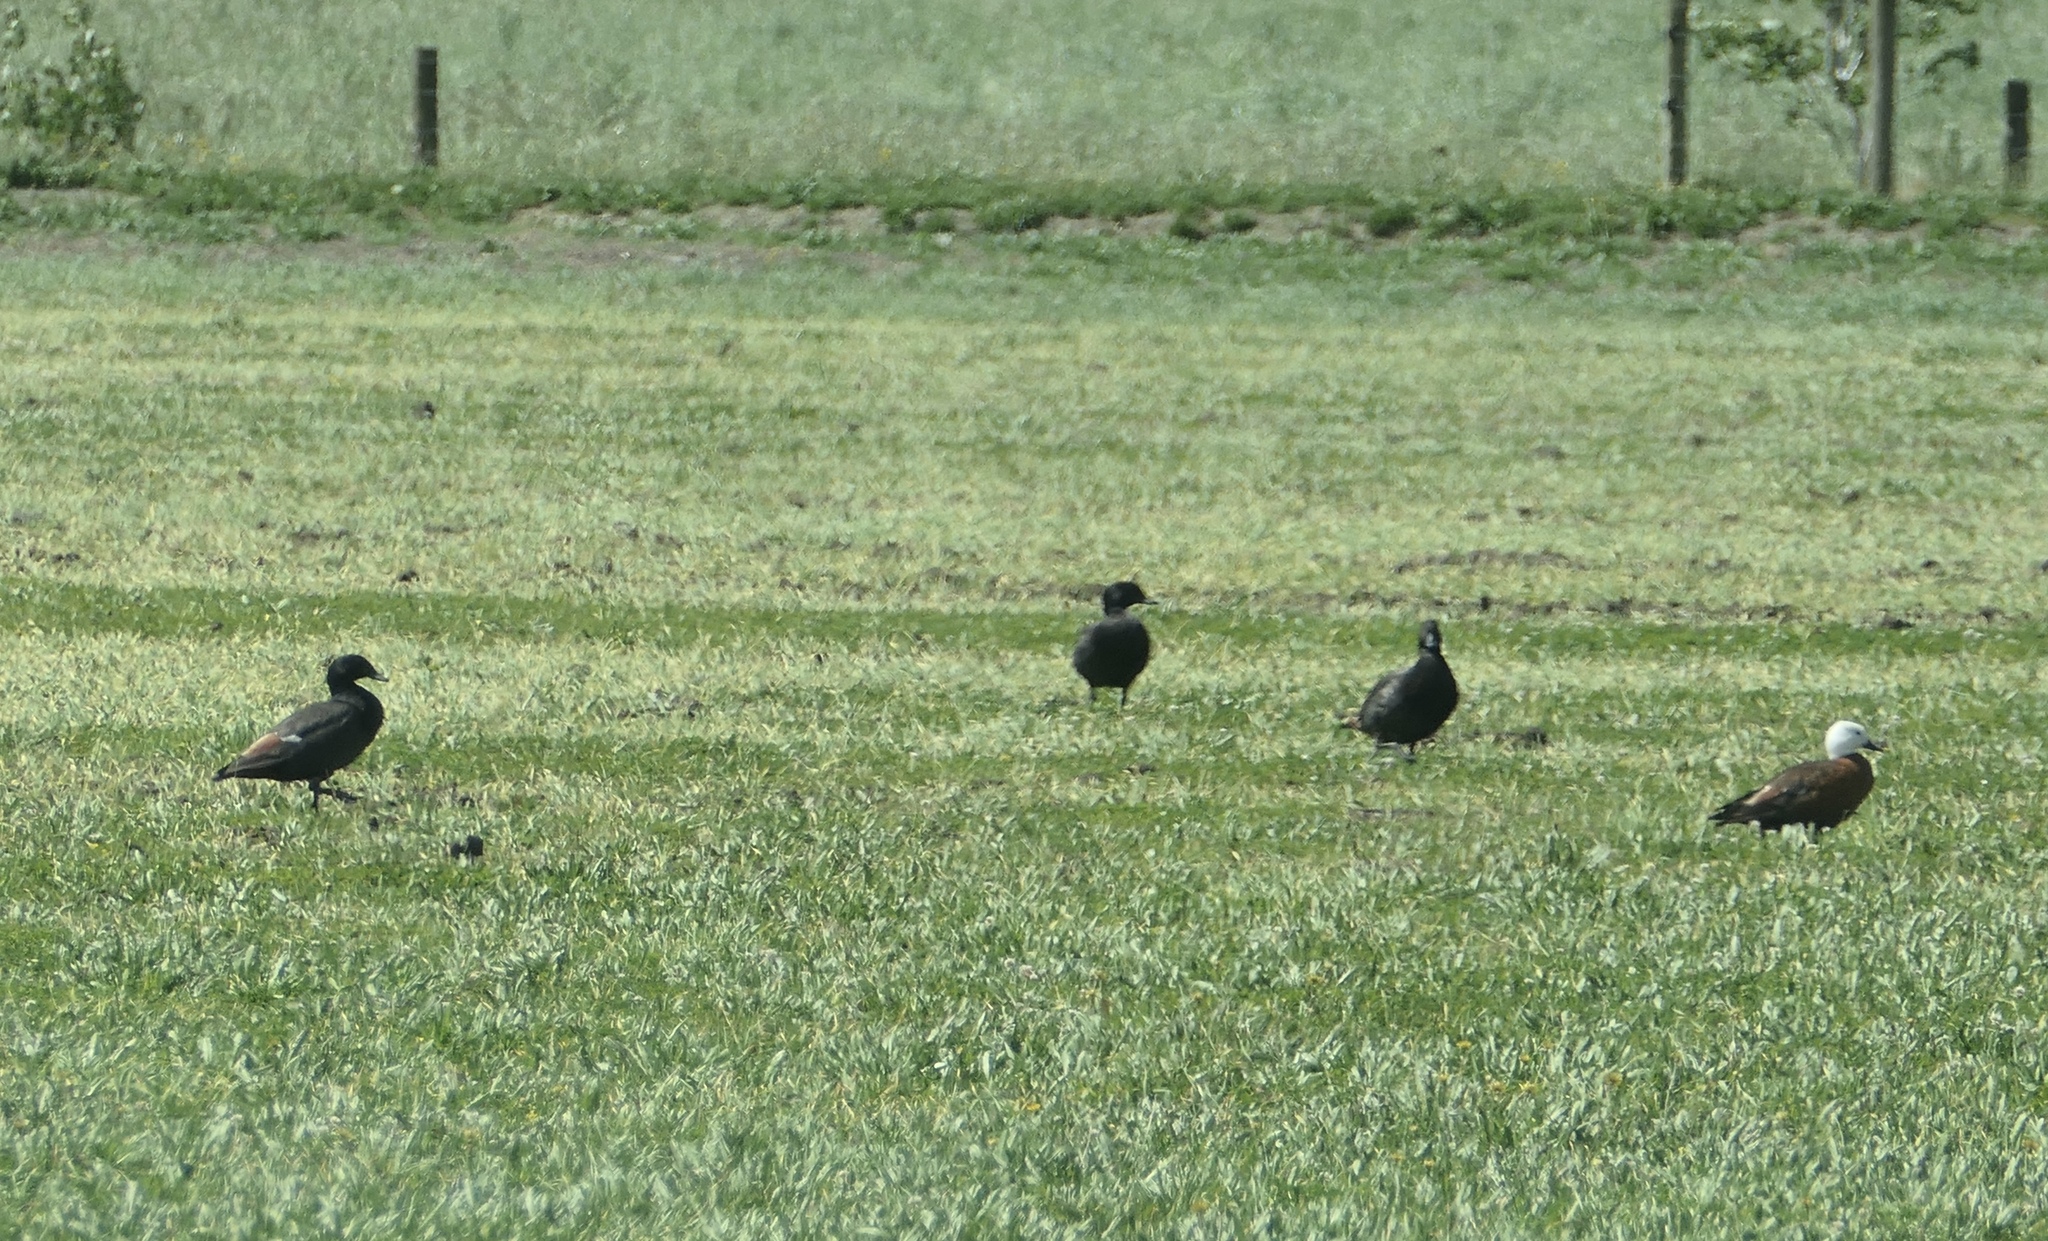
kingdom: Animalia
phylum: Chordata
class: Aves
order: Anseriformes
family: Anatidae
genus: Tadorna
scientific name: Tadorna variegata
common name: Paradise shelduck
